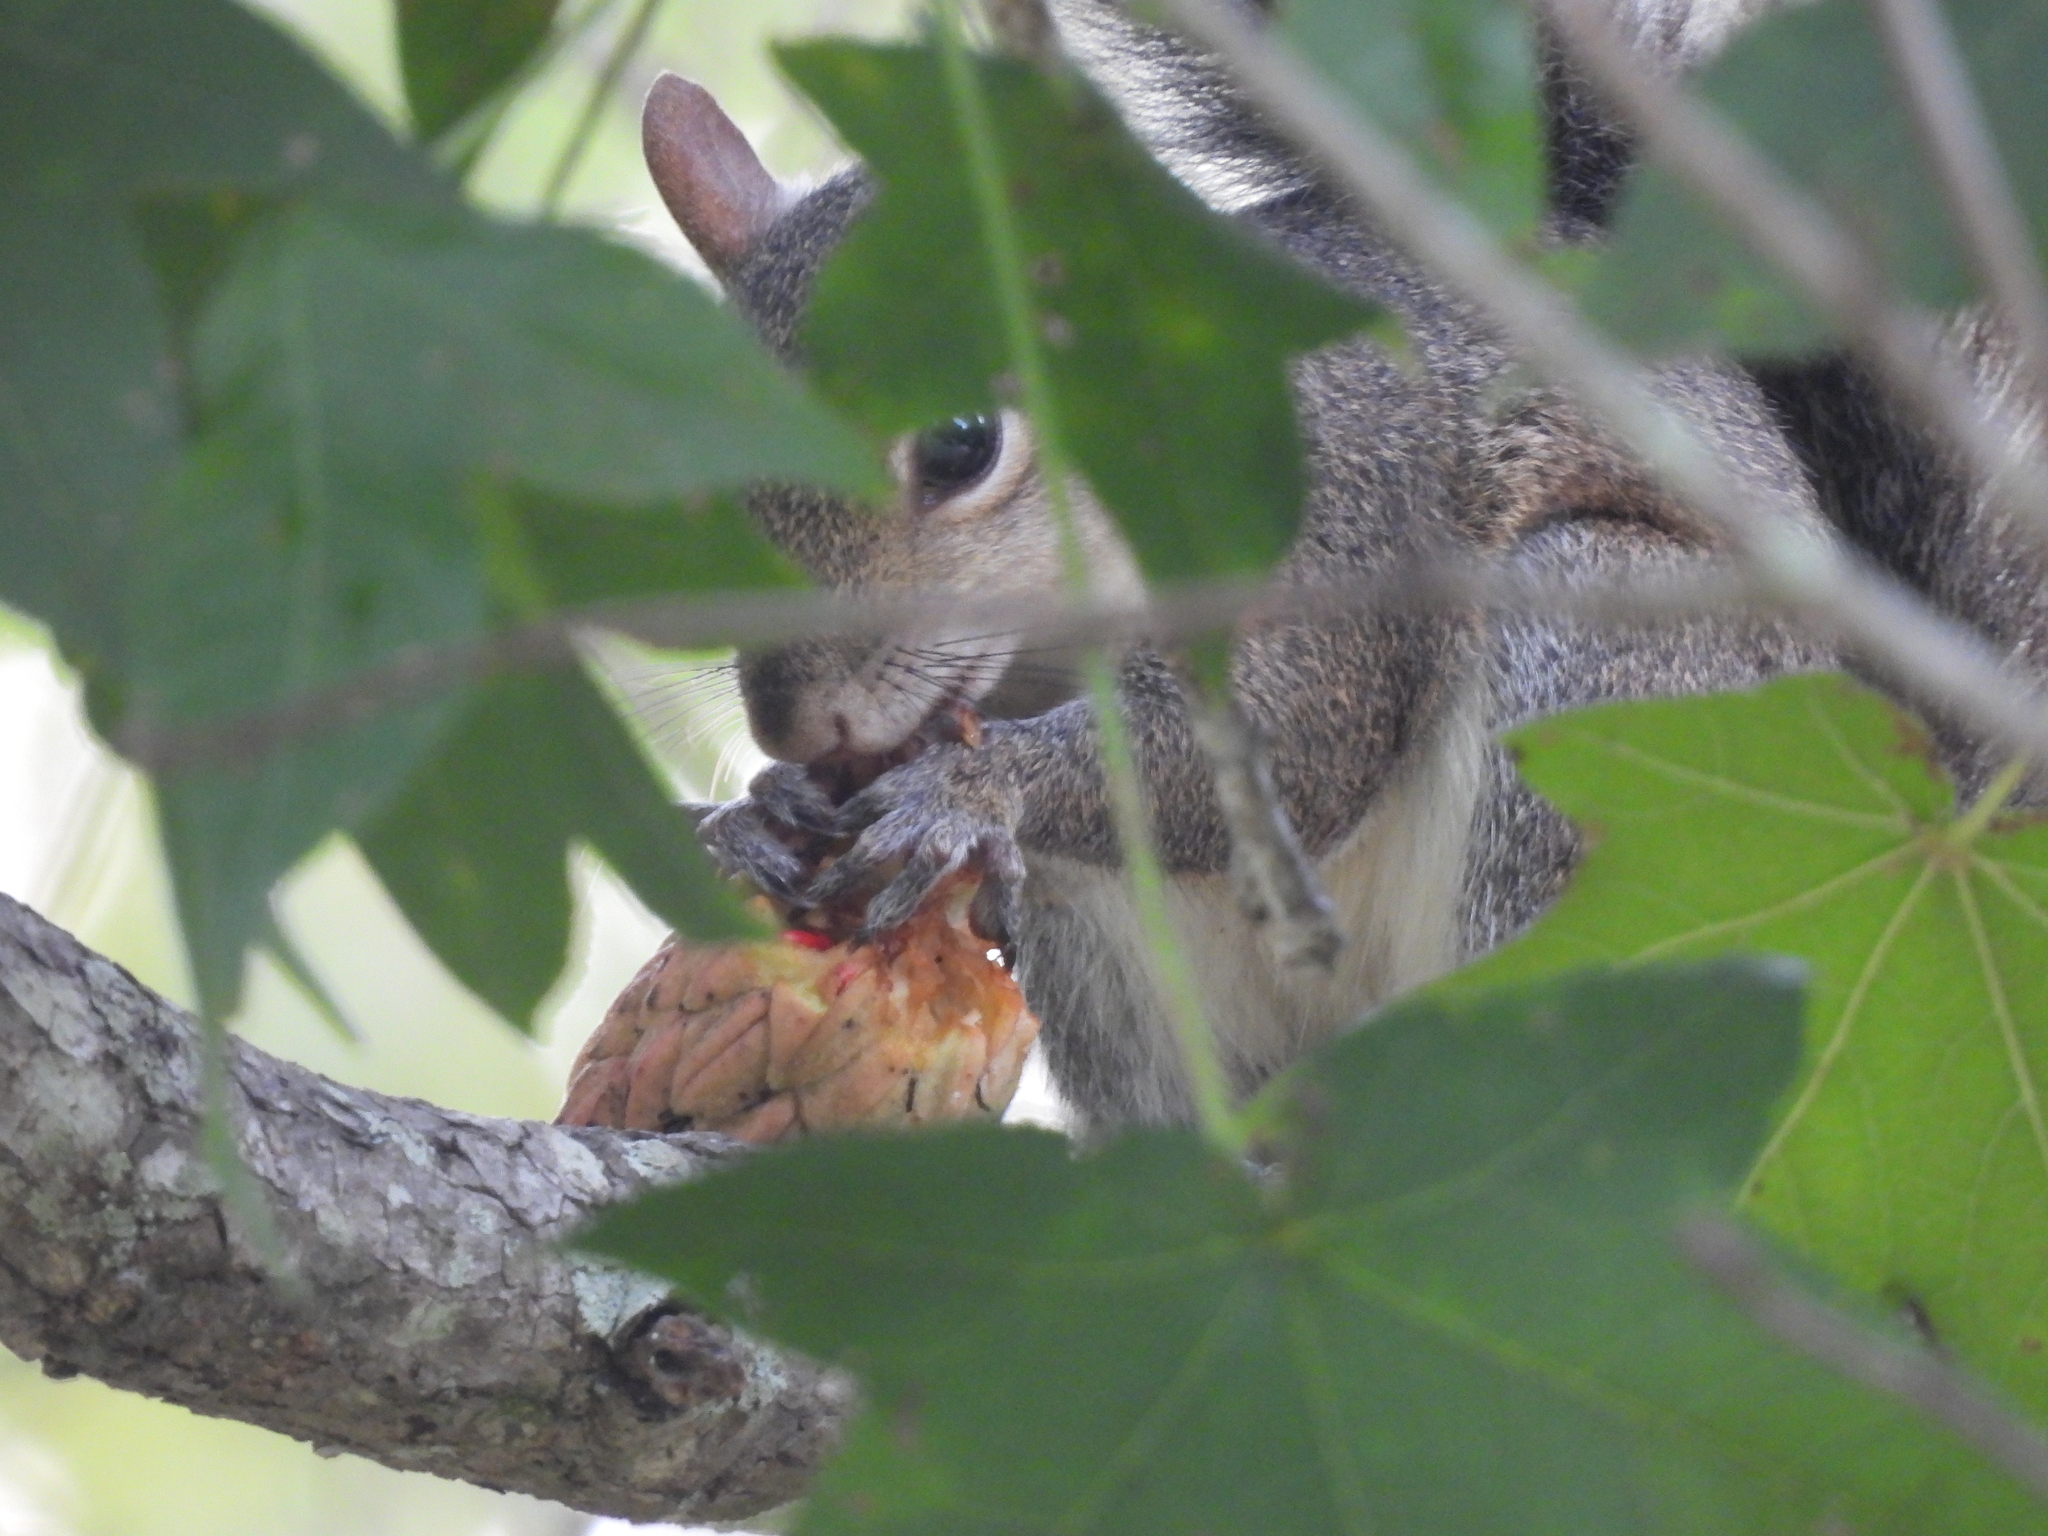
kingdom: Animalia
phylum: Chordata
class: Mammalia
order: Rodentia
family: Sciuridae
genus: Sciurus
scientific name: Sciurus carolinensis
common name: Eastern gray squirrel
